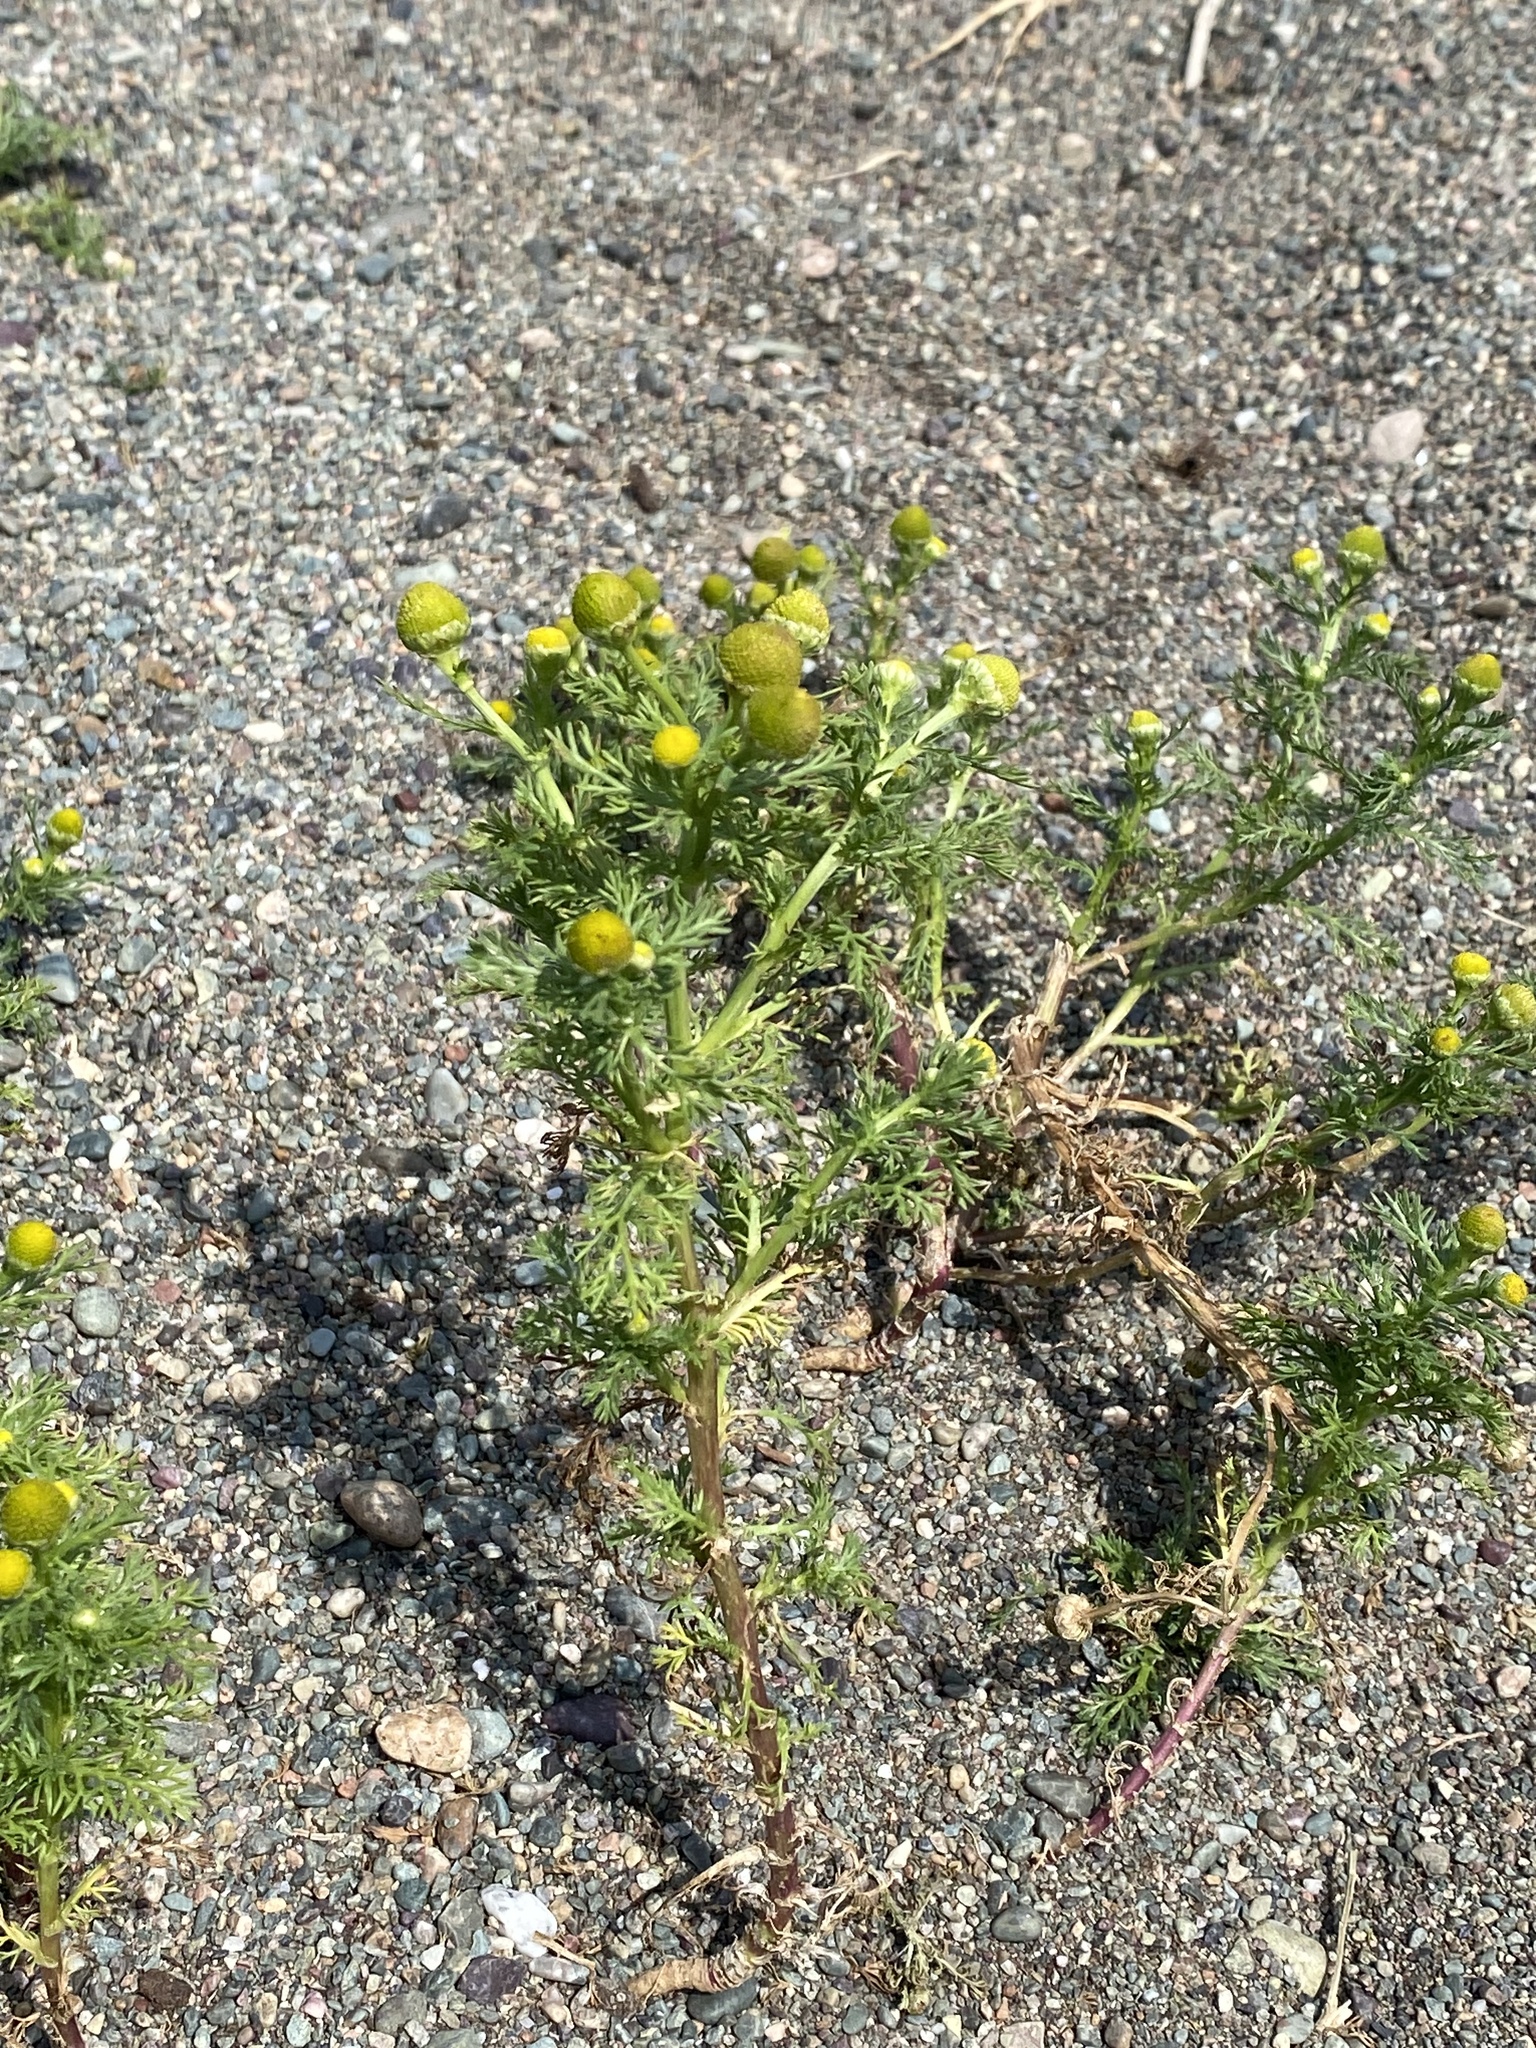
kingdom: Plantae
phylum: Tracheophyta
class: Magnoliopsida
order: Asterales
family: Asteraceae
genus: Matricaria
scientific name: Matricaria discoidea
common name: Disc mayweed
